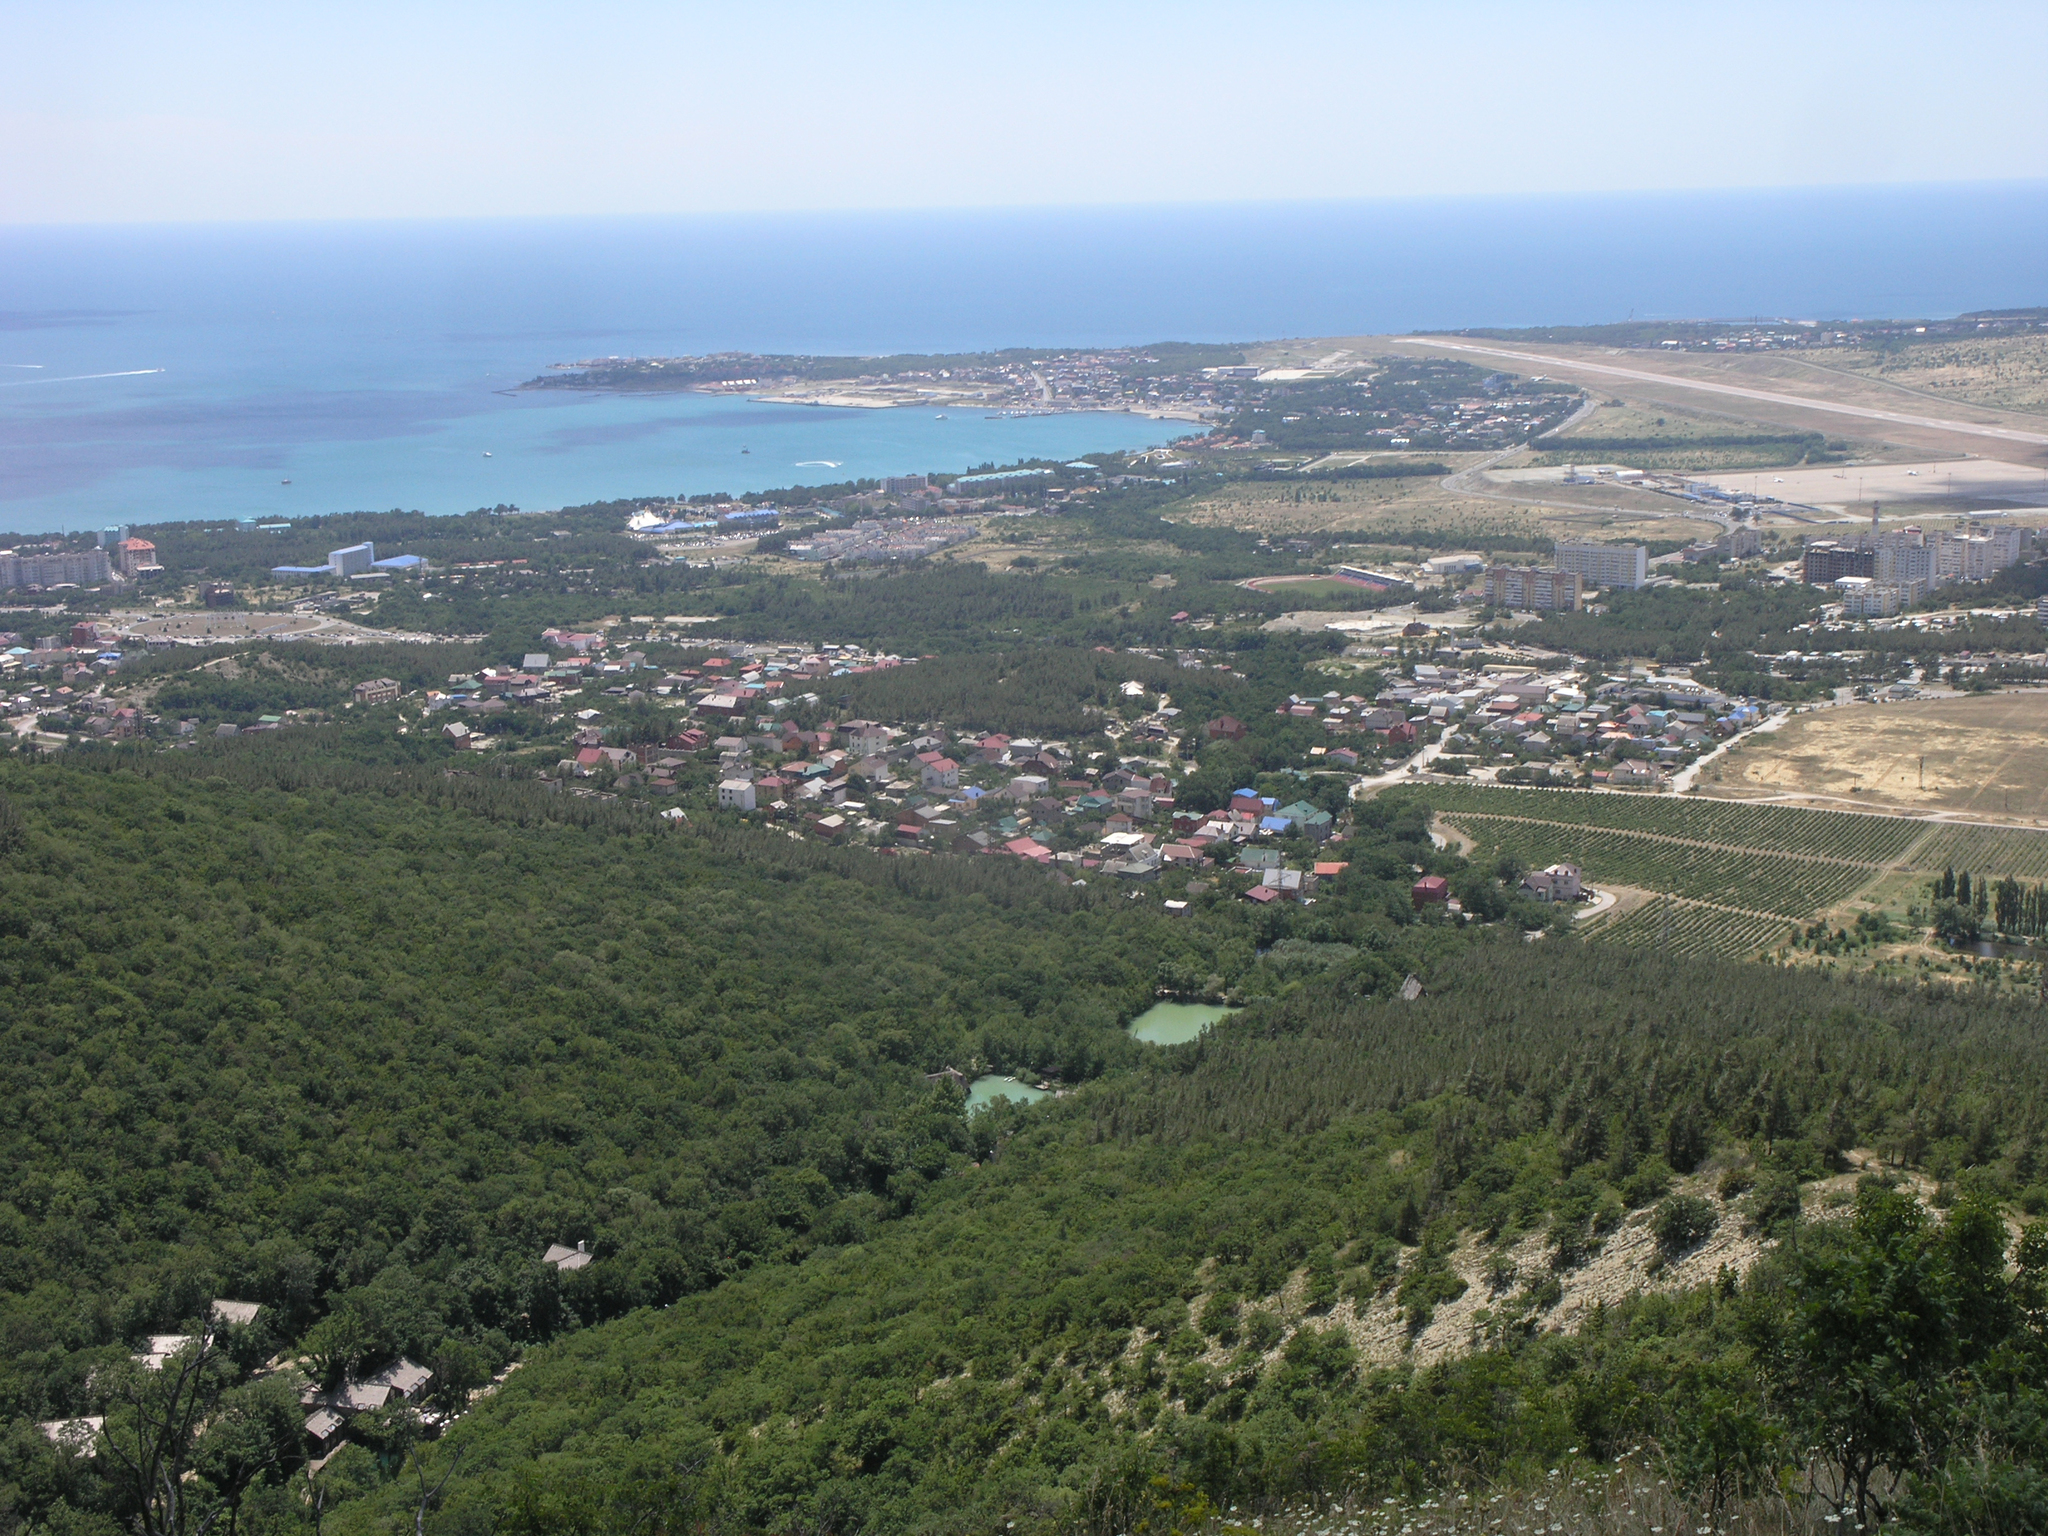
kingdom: Plantae
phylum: Tracheophyta
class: Magnoliopsida
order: Fagales
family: Fagaceae
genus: Quercus
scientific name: Quercus pubescens
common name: Downy oak
